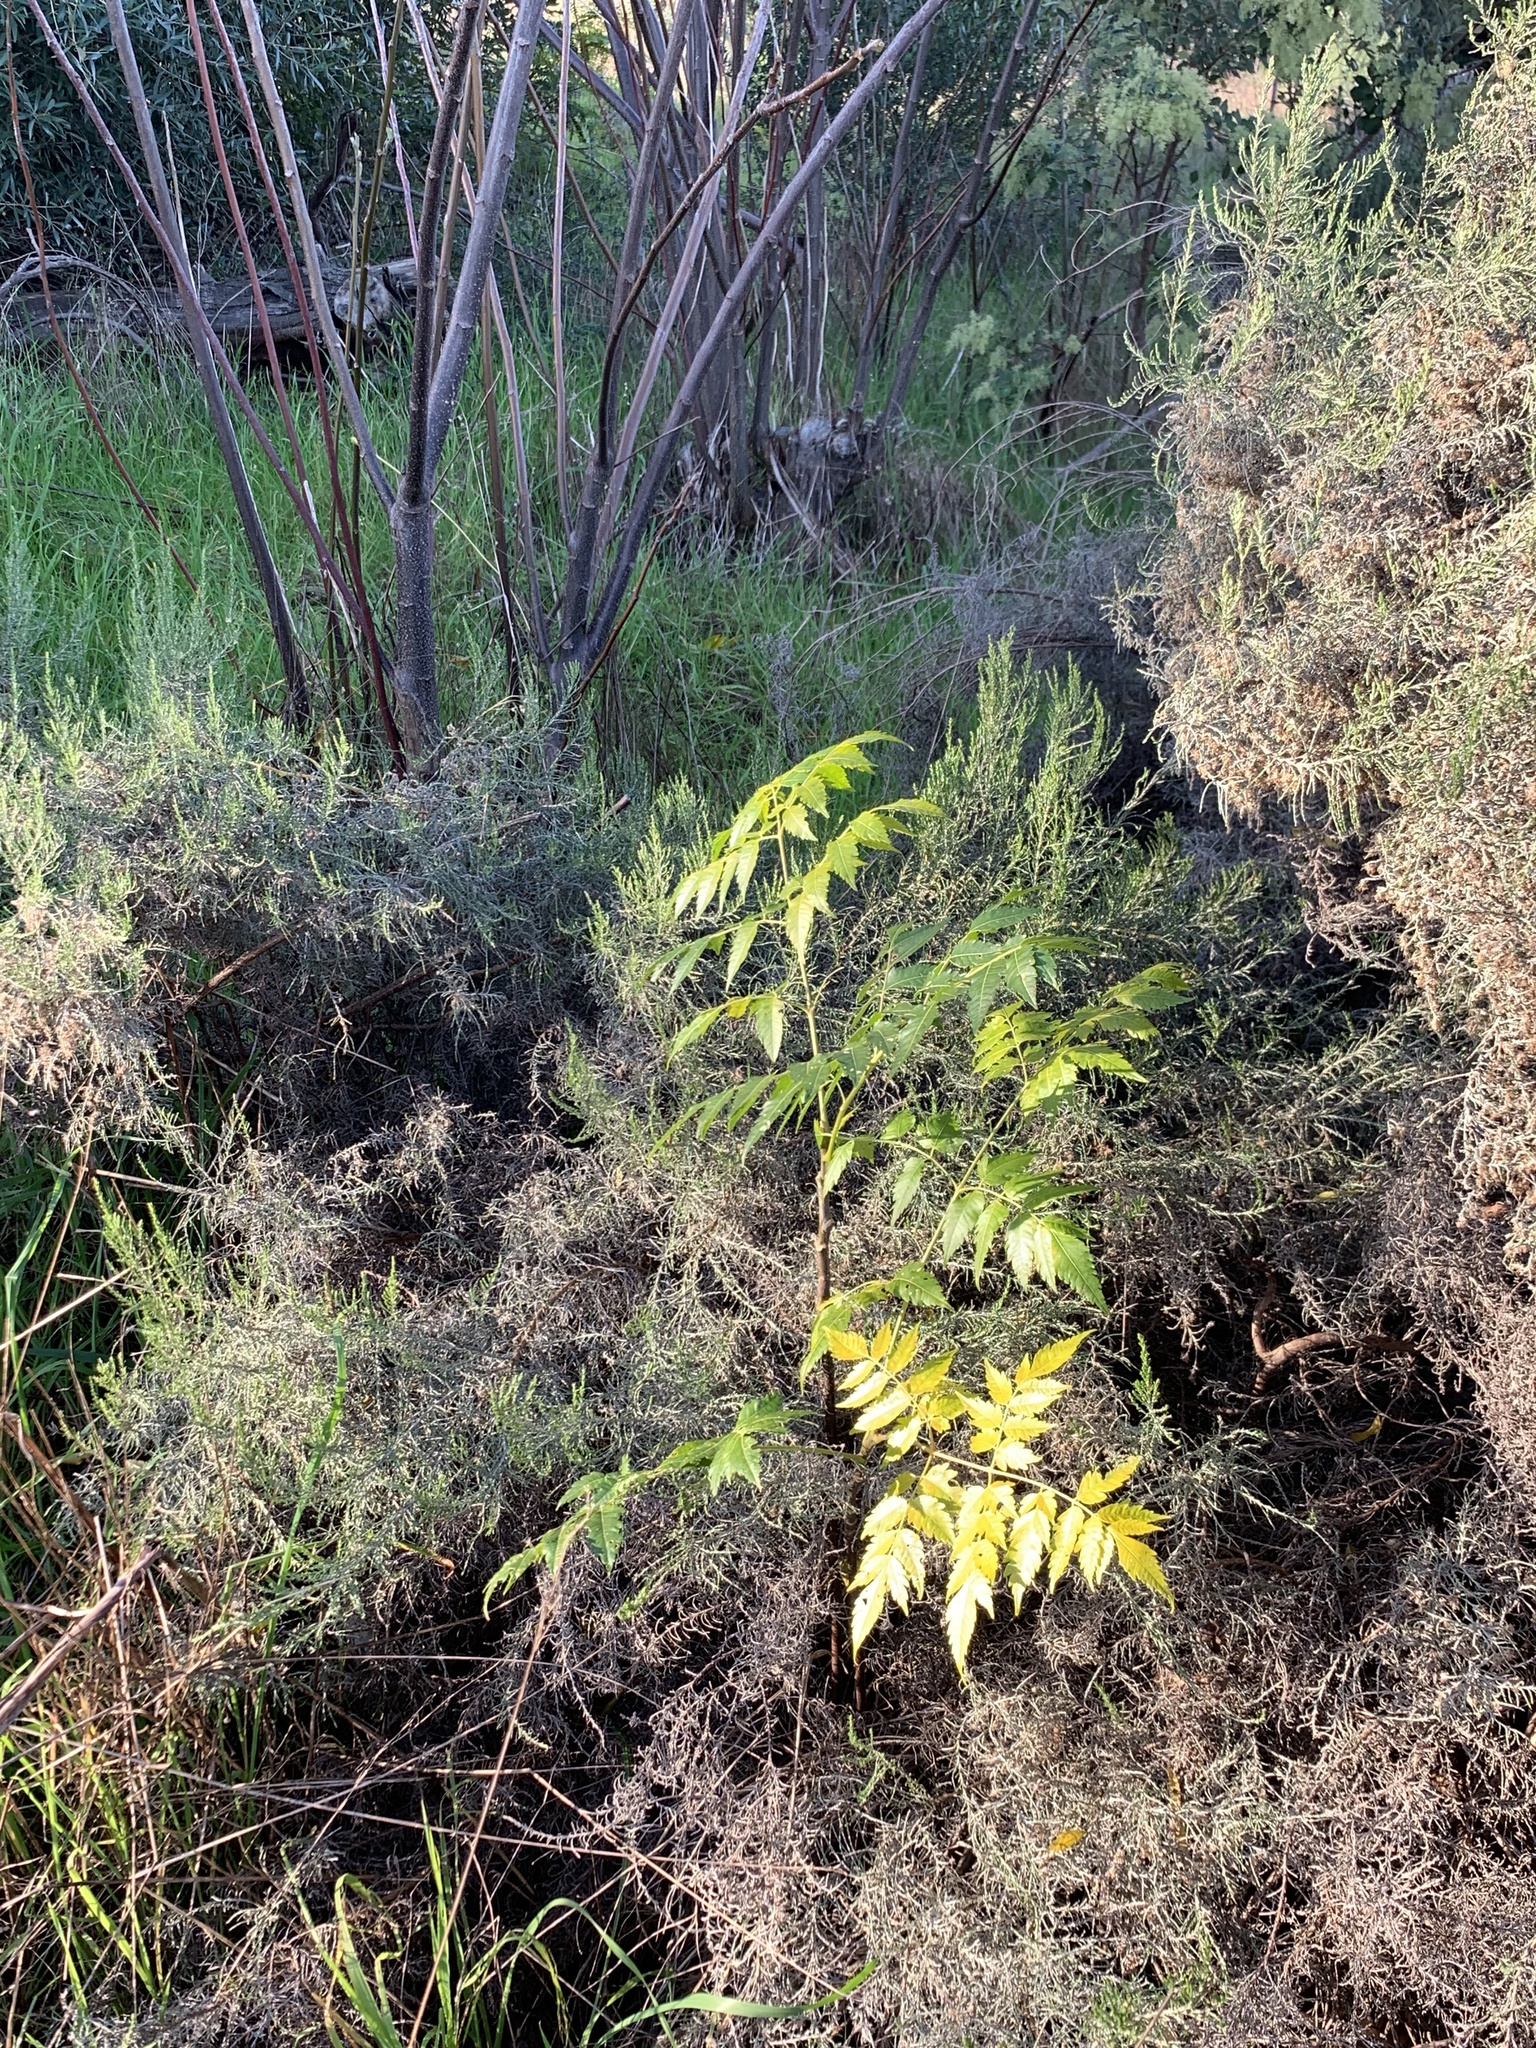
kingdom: Plantae
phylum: Tracheophyta
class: Magnoliopsida
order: Sapindales
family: Meliaceae
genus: Melia
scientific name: Melia azedarach
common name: Chinaberrytree
